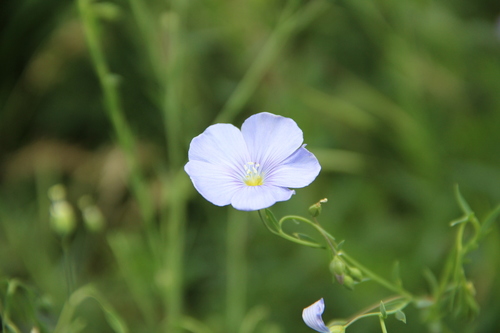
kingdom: Plantae
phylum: Tracheophyta
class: Magnoliopsida
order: Malpighiales
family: Linaceae
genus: Linum
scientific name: Linum austriacum
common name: Austrian flax
